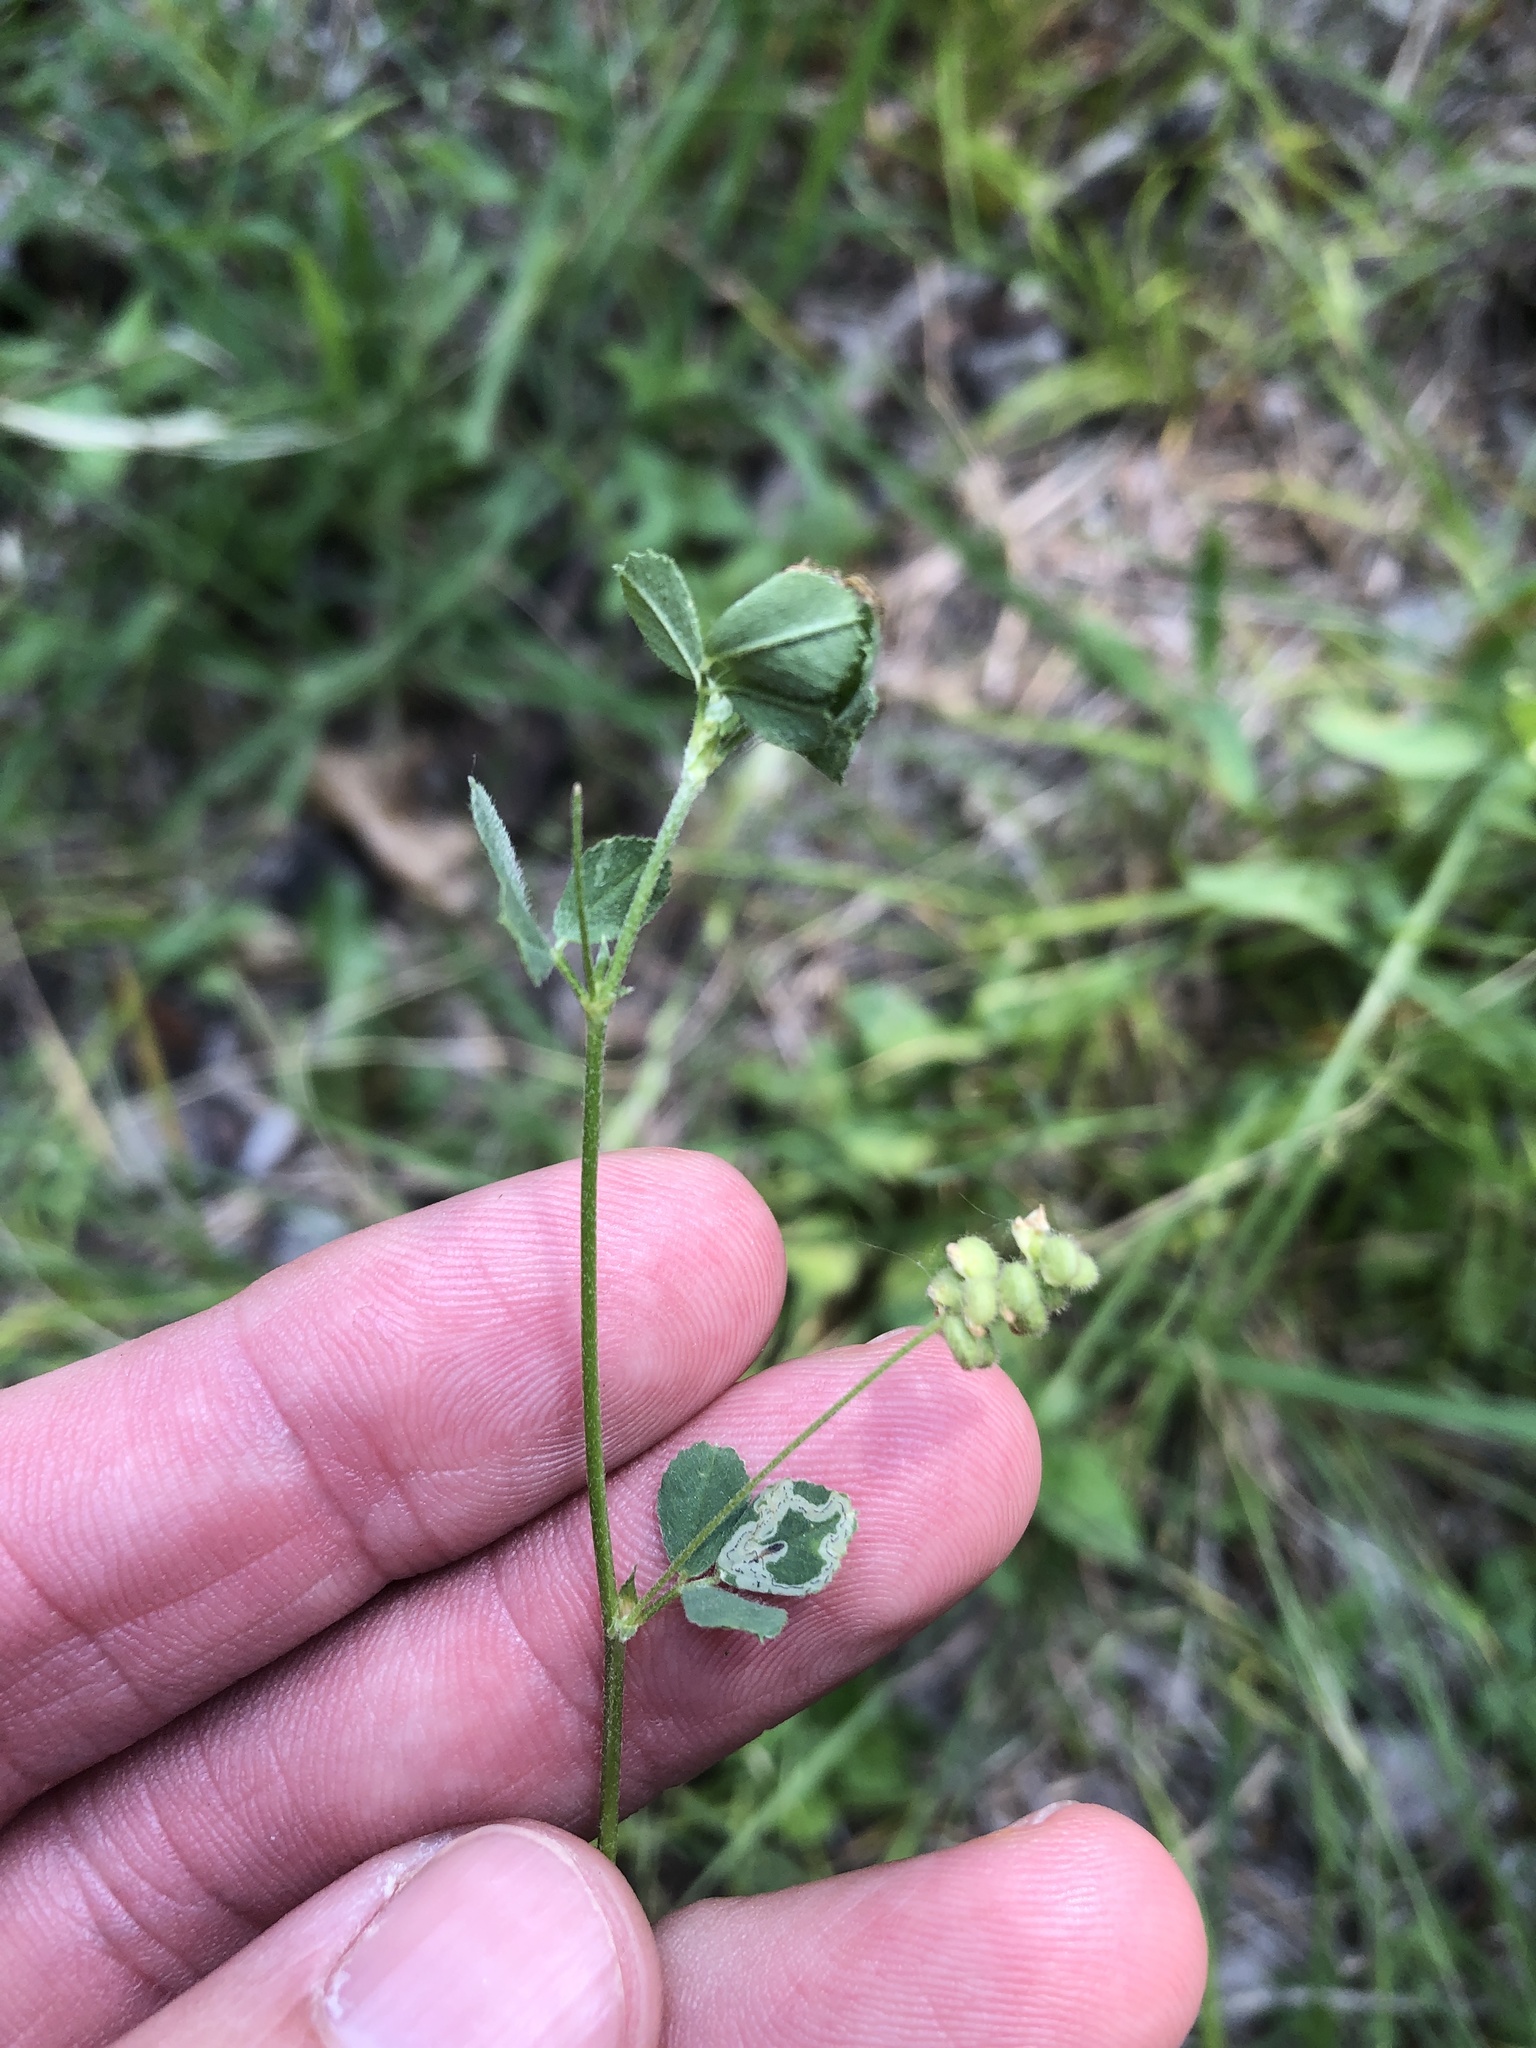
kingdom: Plantae
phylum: Tracheophyta
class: Magnoliopsida
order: Fabales
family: Fabaceae
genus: Medicago
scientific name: Medicago lupulina
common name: Black medick
